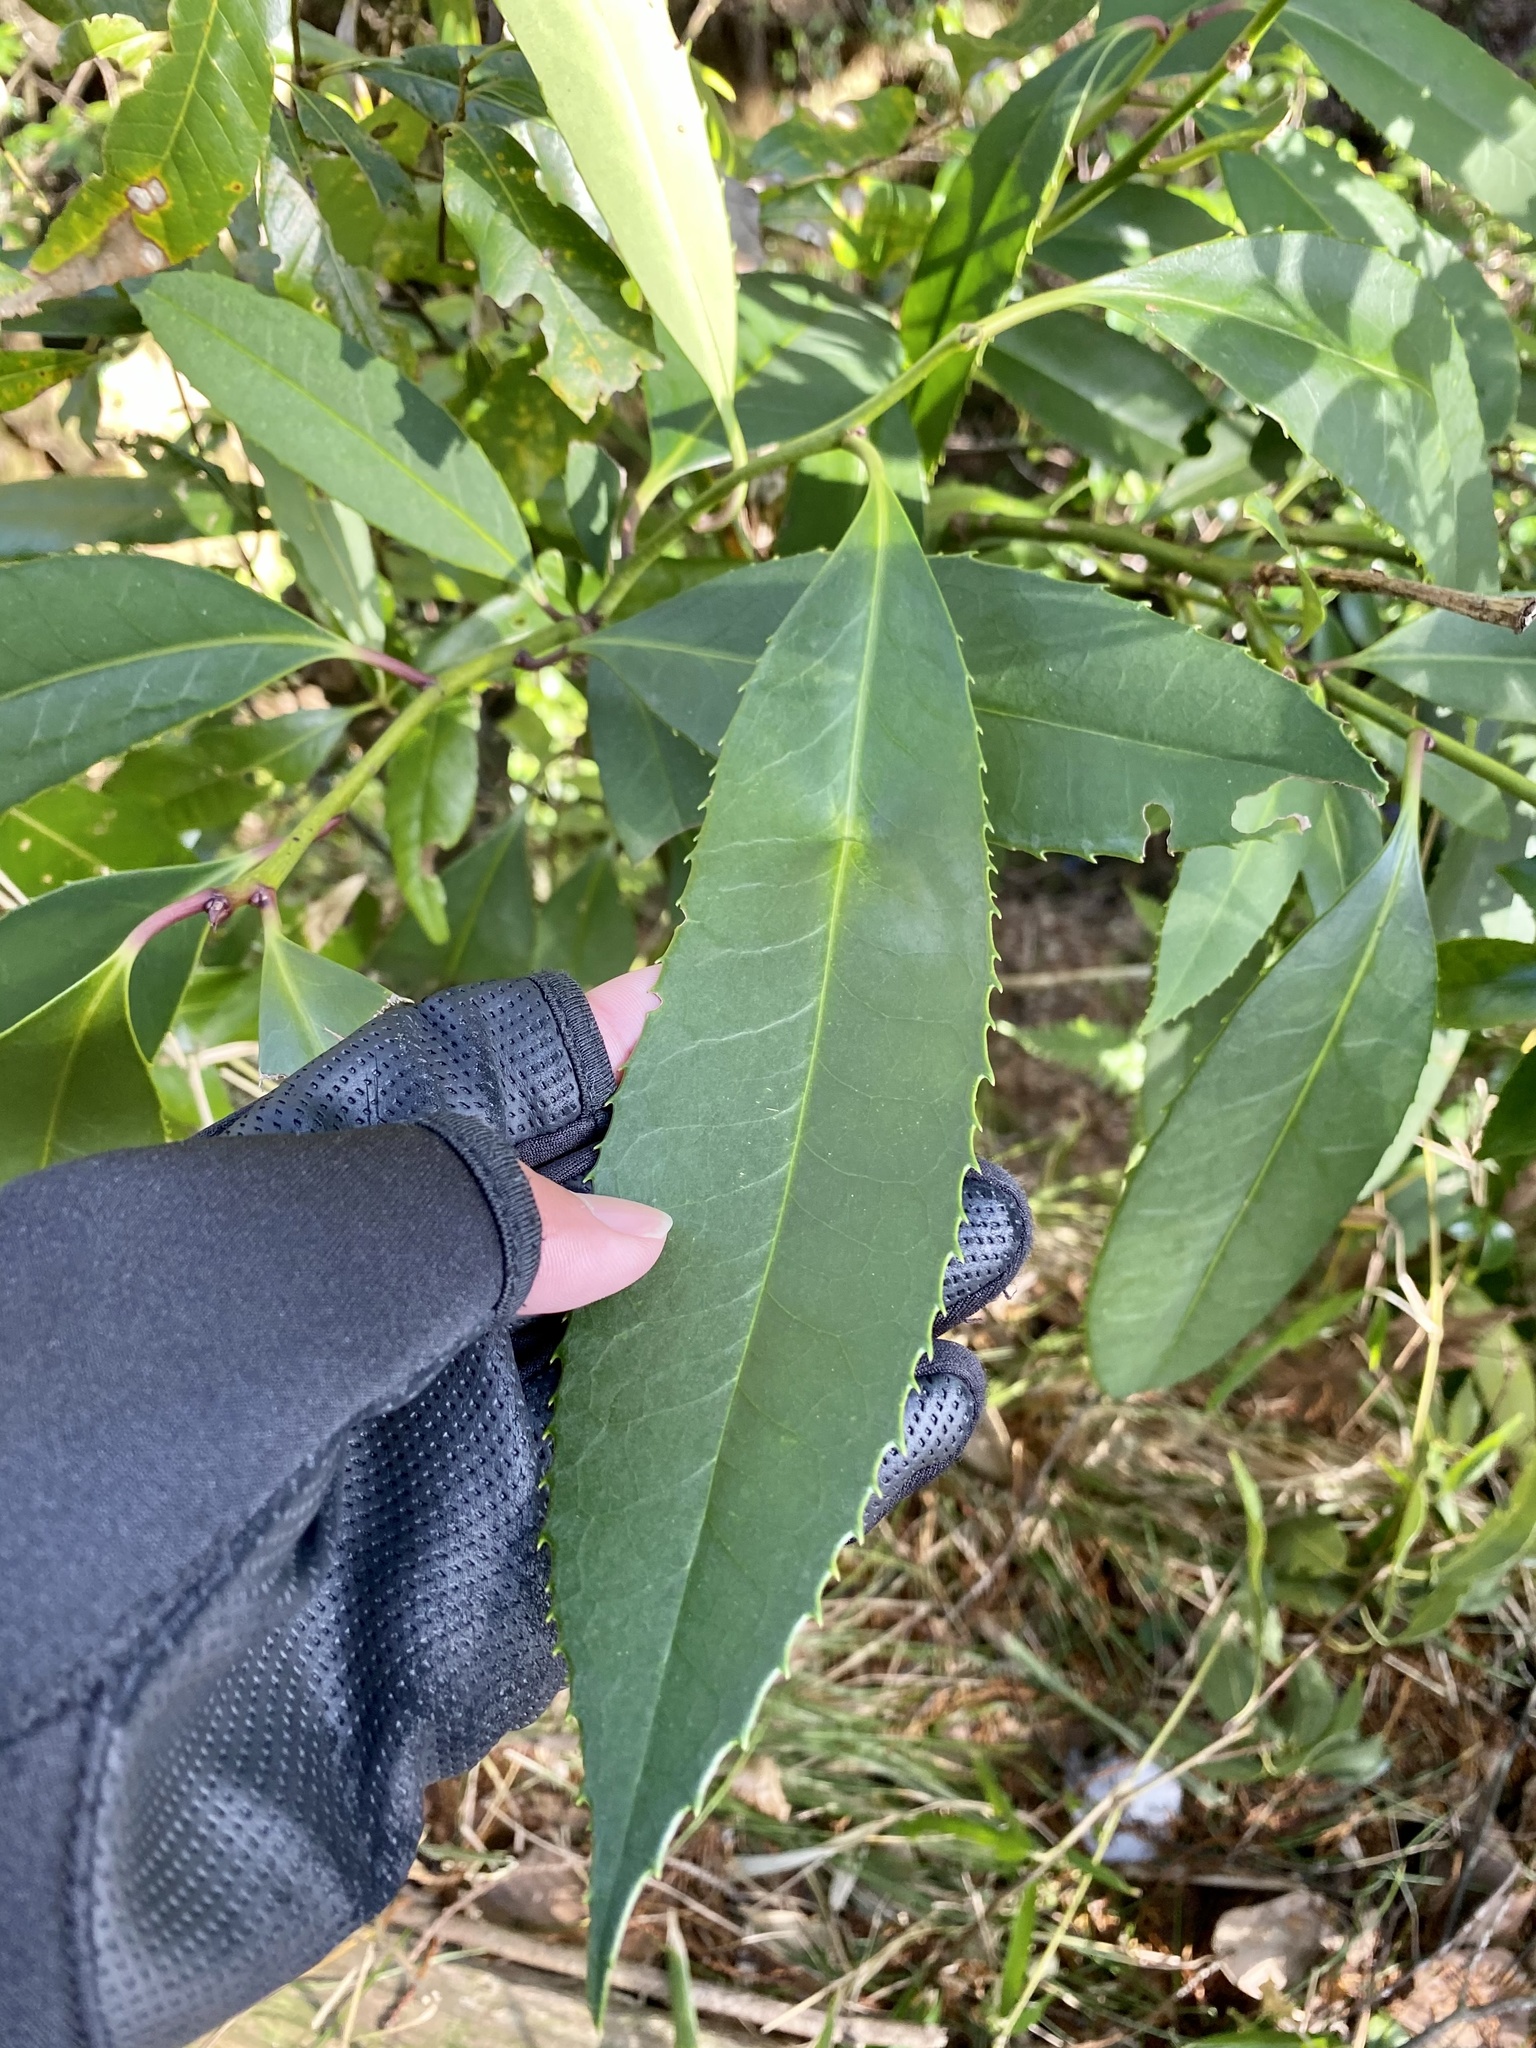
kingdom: Plantae
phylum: Tracheophyta
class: Magnoliopsida
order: Aquifoliales
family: Aquifoliaceae
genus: Ilex
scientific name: Ilex latifolia
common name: Tarajo holly
